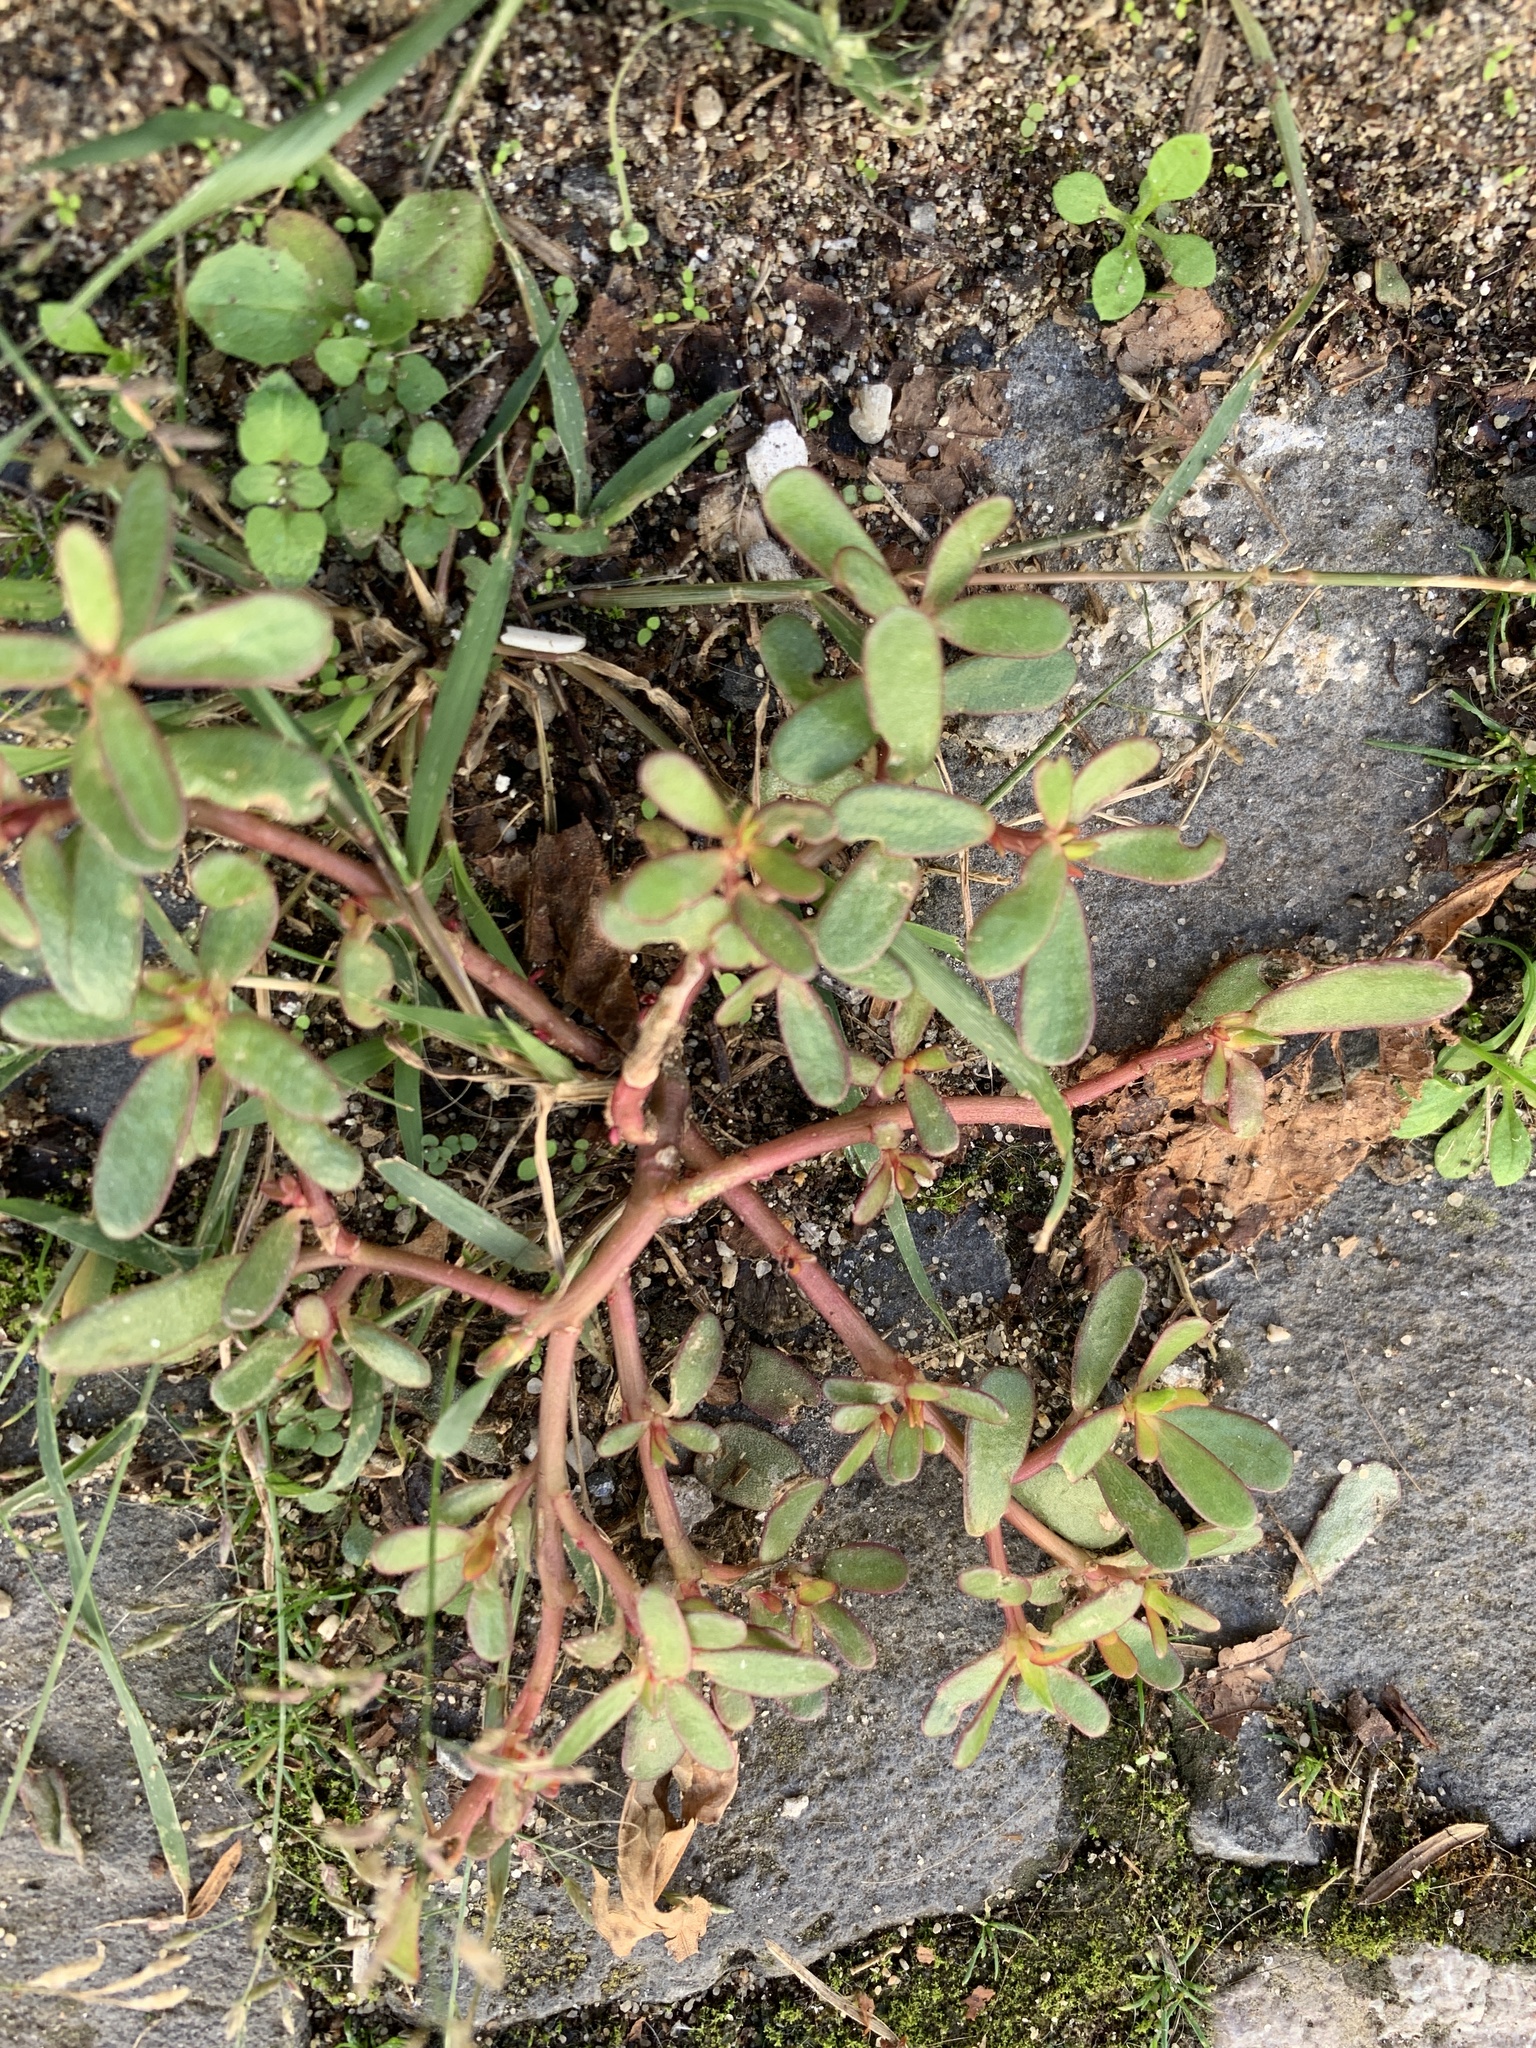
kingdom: Plantae
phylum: Tracheophyta
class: Magnoliopsida
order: Caryophyllales
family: Portulacaceae
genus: Portulaca
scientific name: Portulaca oleracea
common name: Common purslane
